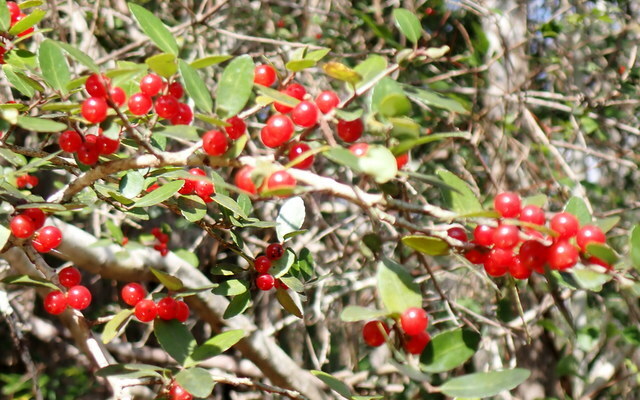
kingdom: Plantae
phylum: Tracheophyta
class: Magnoliopsida
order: Aquifoliales
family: Aquifoliaceae
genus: Ilex
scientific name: Ilex vomitoria
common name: Yaupon holly
